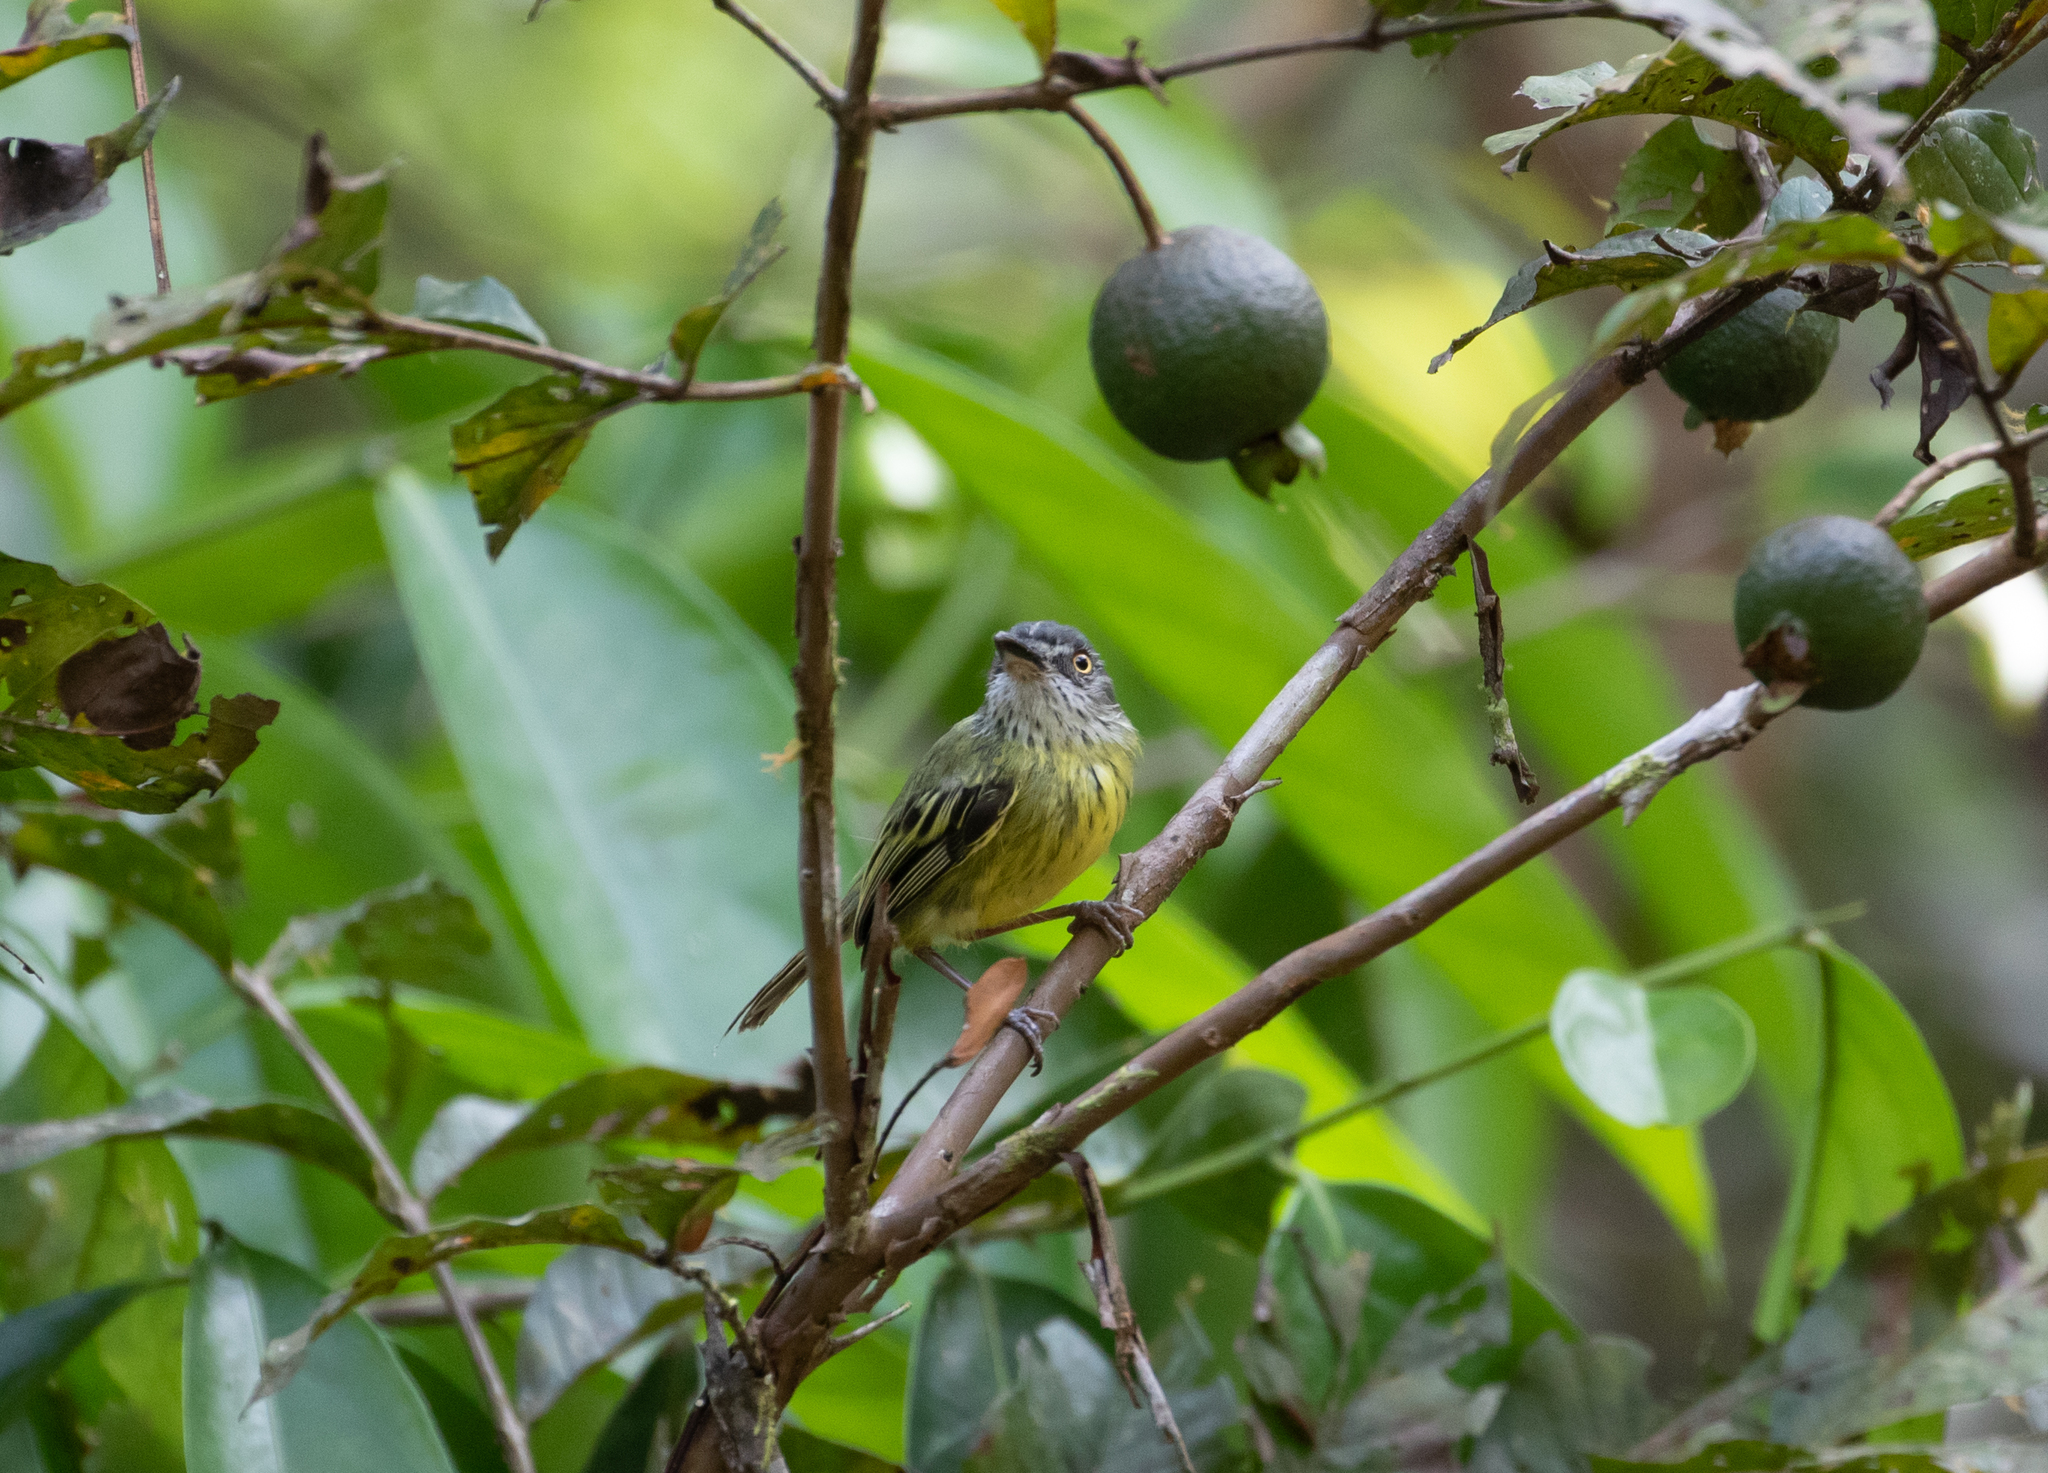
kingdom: Animalia
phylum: Chordata
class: Aves
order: Passeriformes
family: Tyrannidae
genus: Todirostrum
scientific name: Todirostrum maculatum
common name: Spotted tody-flycatcher
